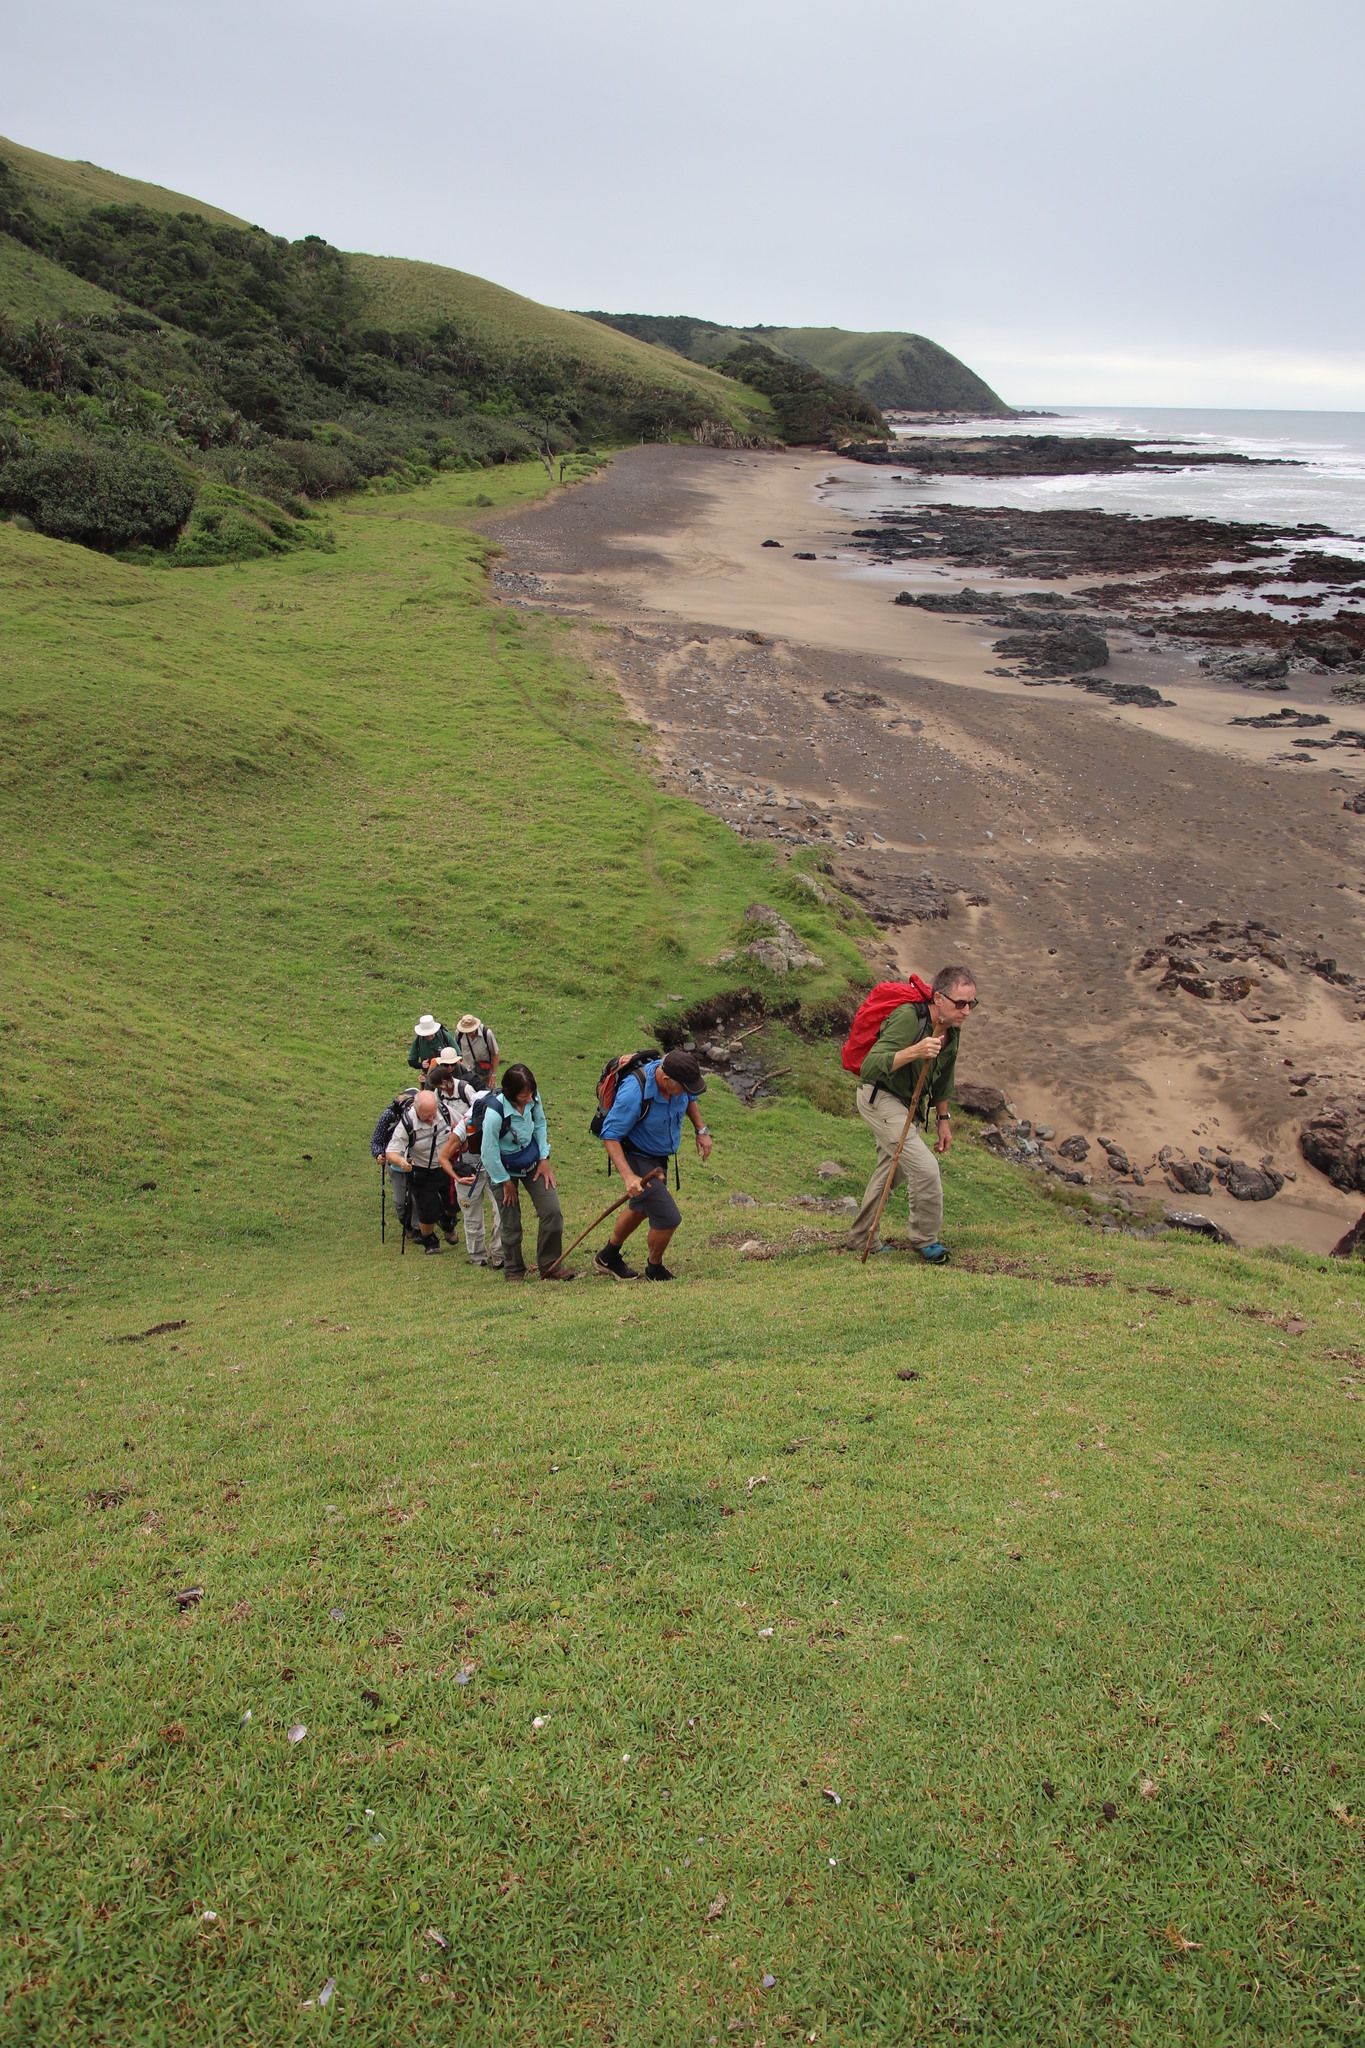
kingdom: Plantae
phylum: Tracheophyta
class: Liliopsida
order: Poales
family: Poaceae
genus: Stenotaphrum
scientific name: Stenotaphrum secundatum
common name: St. augustine grass
